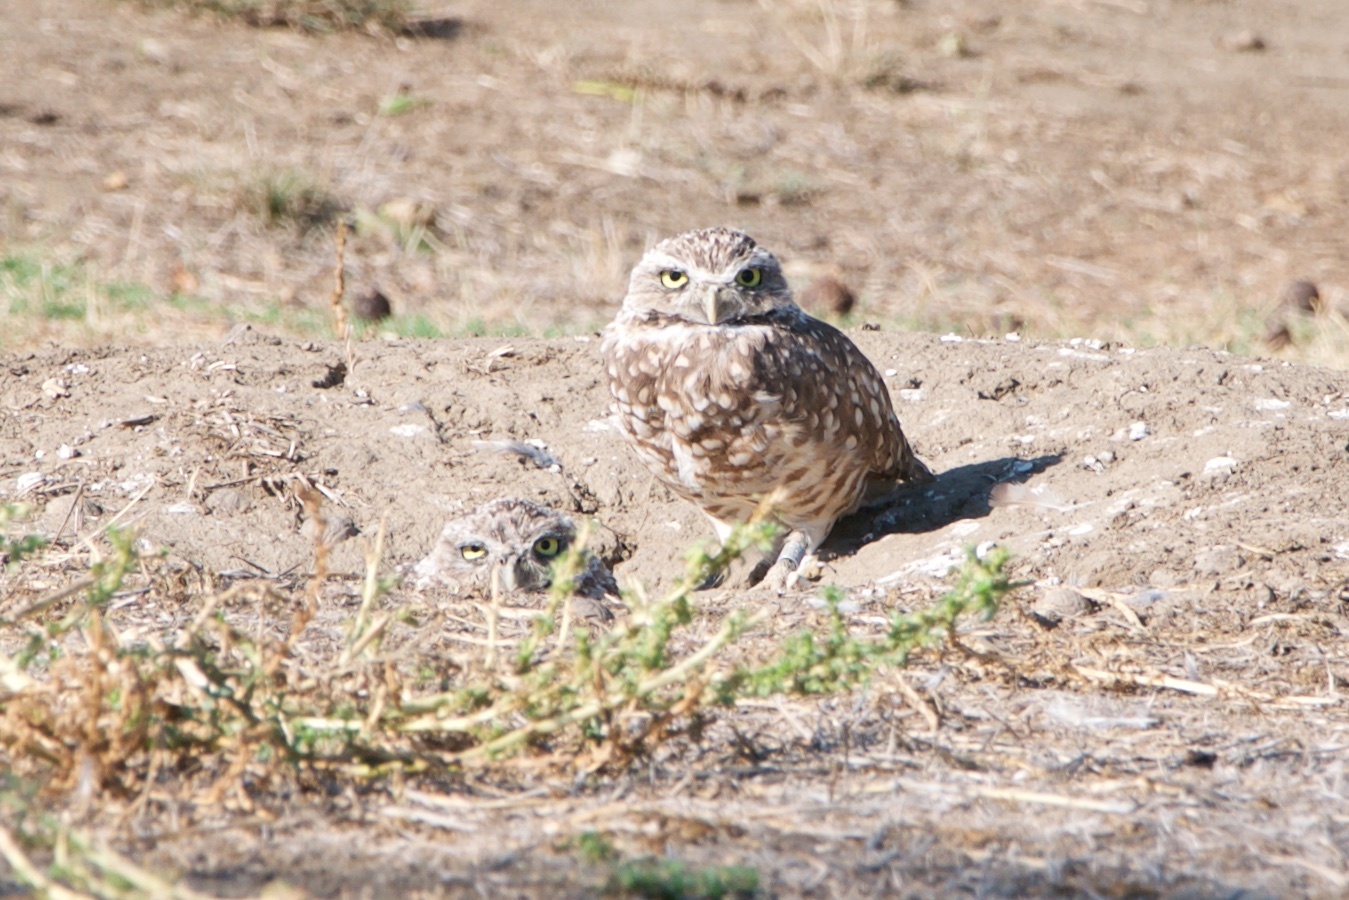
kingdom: Animalia
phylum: Chordata
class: Aves
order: Strigiformes
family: Strigidae
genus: Athene
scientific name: Athene cunicularia
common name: Burrowing owl
